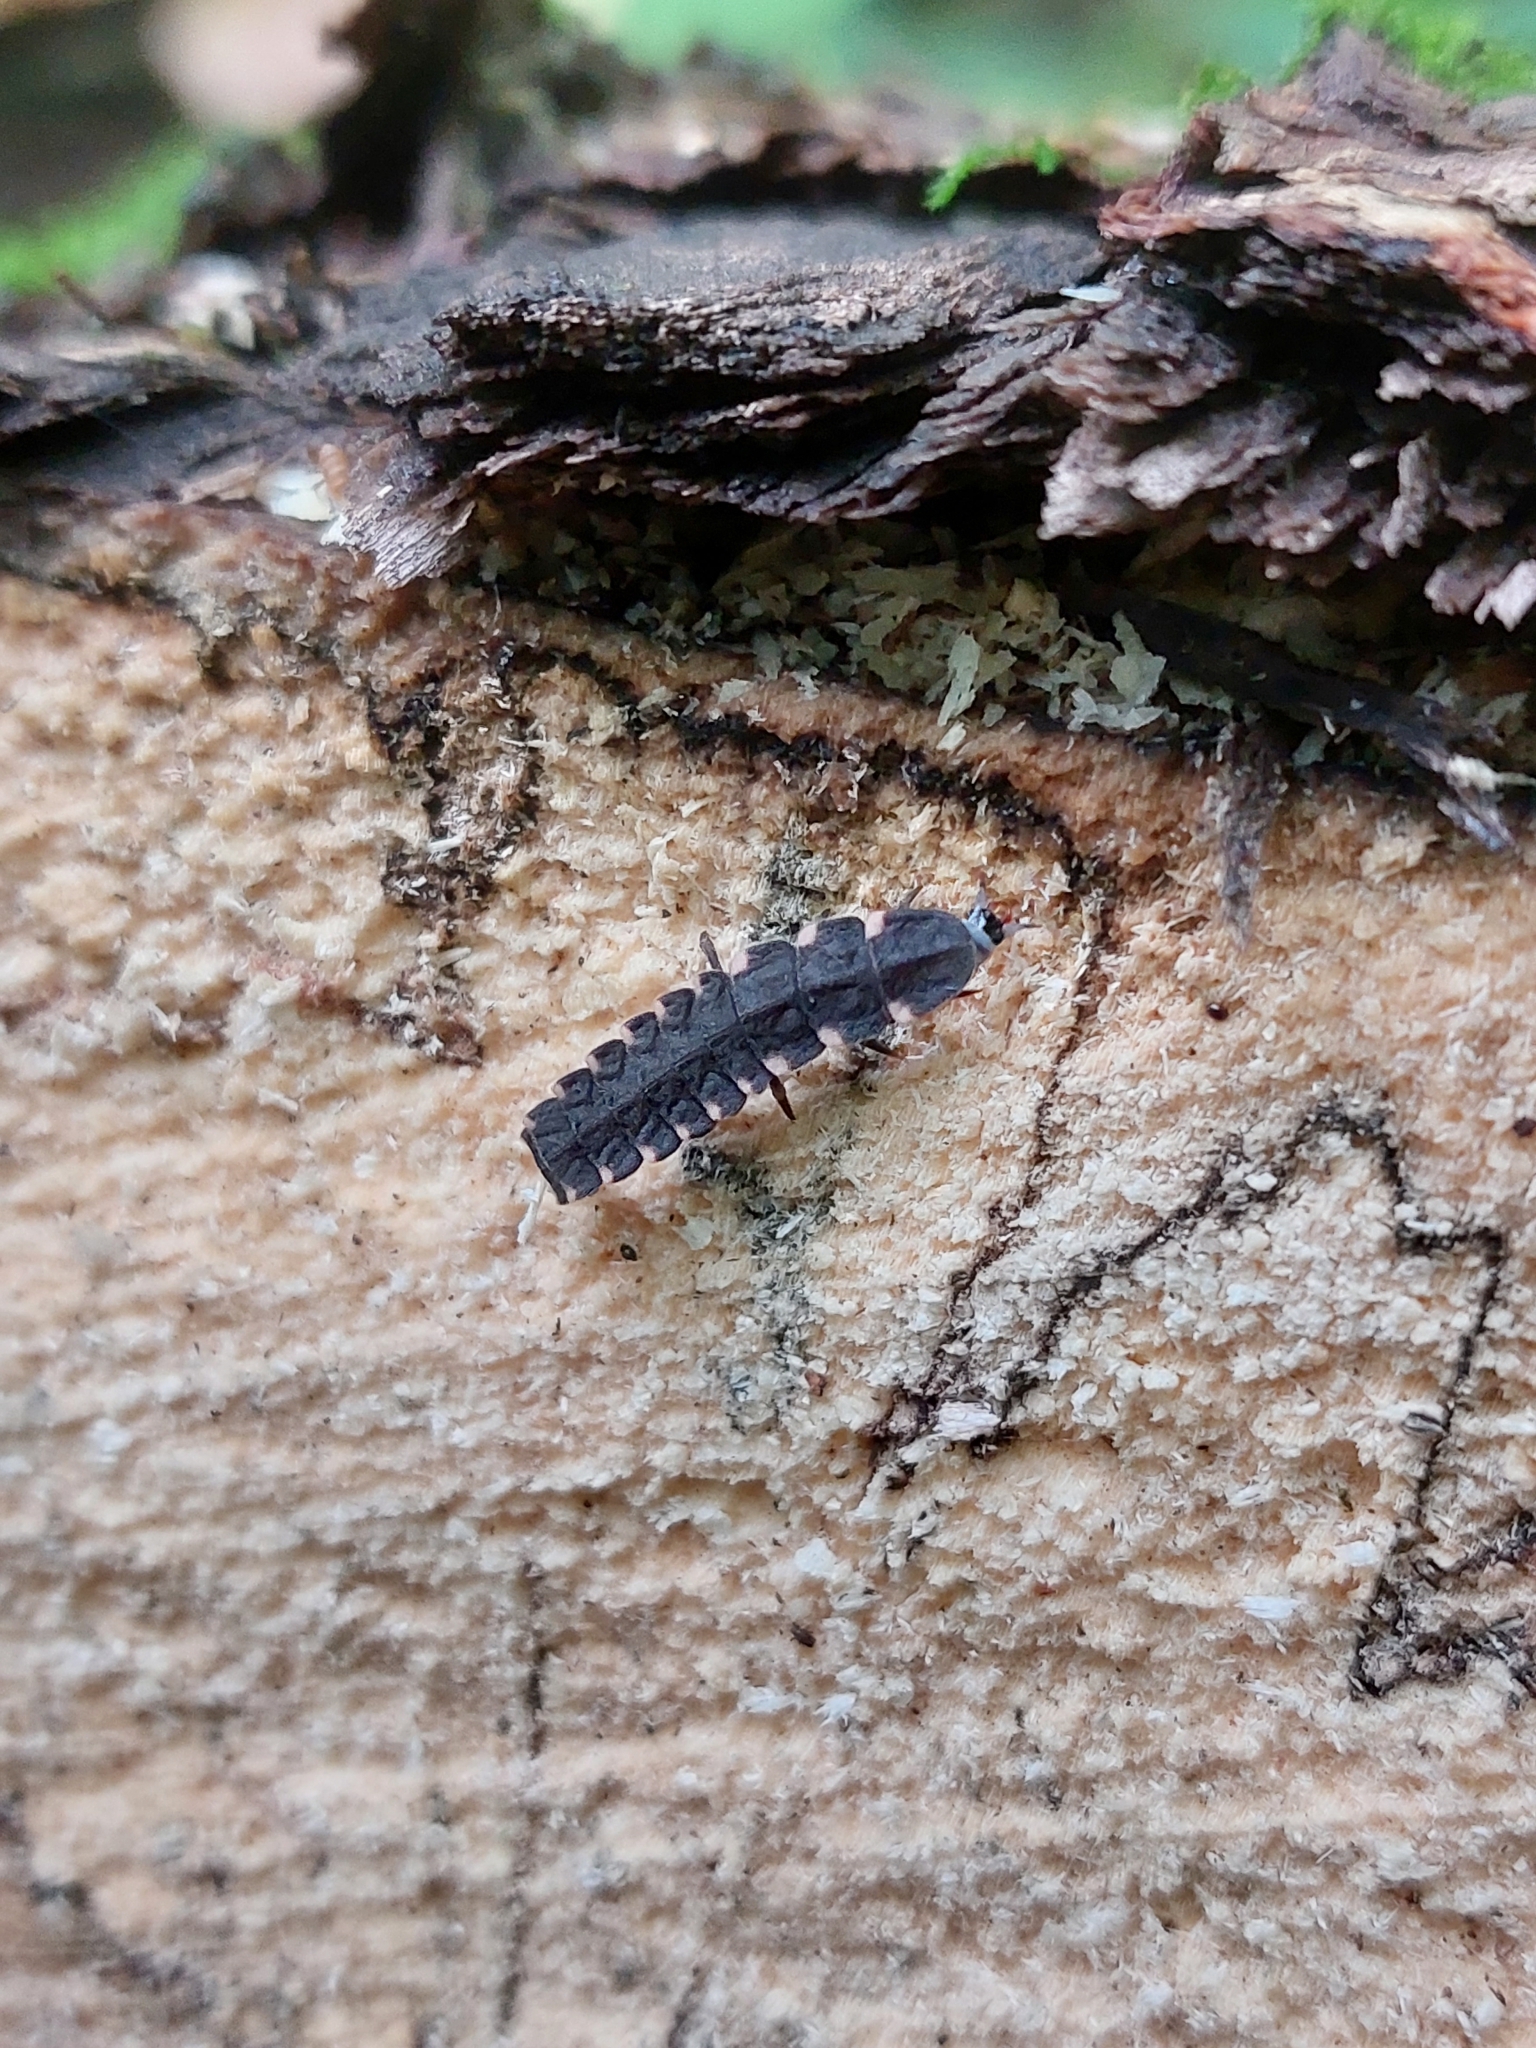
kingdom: Animalia
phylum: Arthropoda
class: Insecta
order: Coleoptera
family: Lampyridae
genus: Lampyris
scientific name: Lampyris noctiluca
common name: Glow-worm
